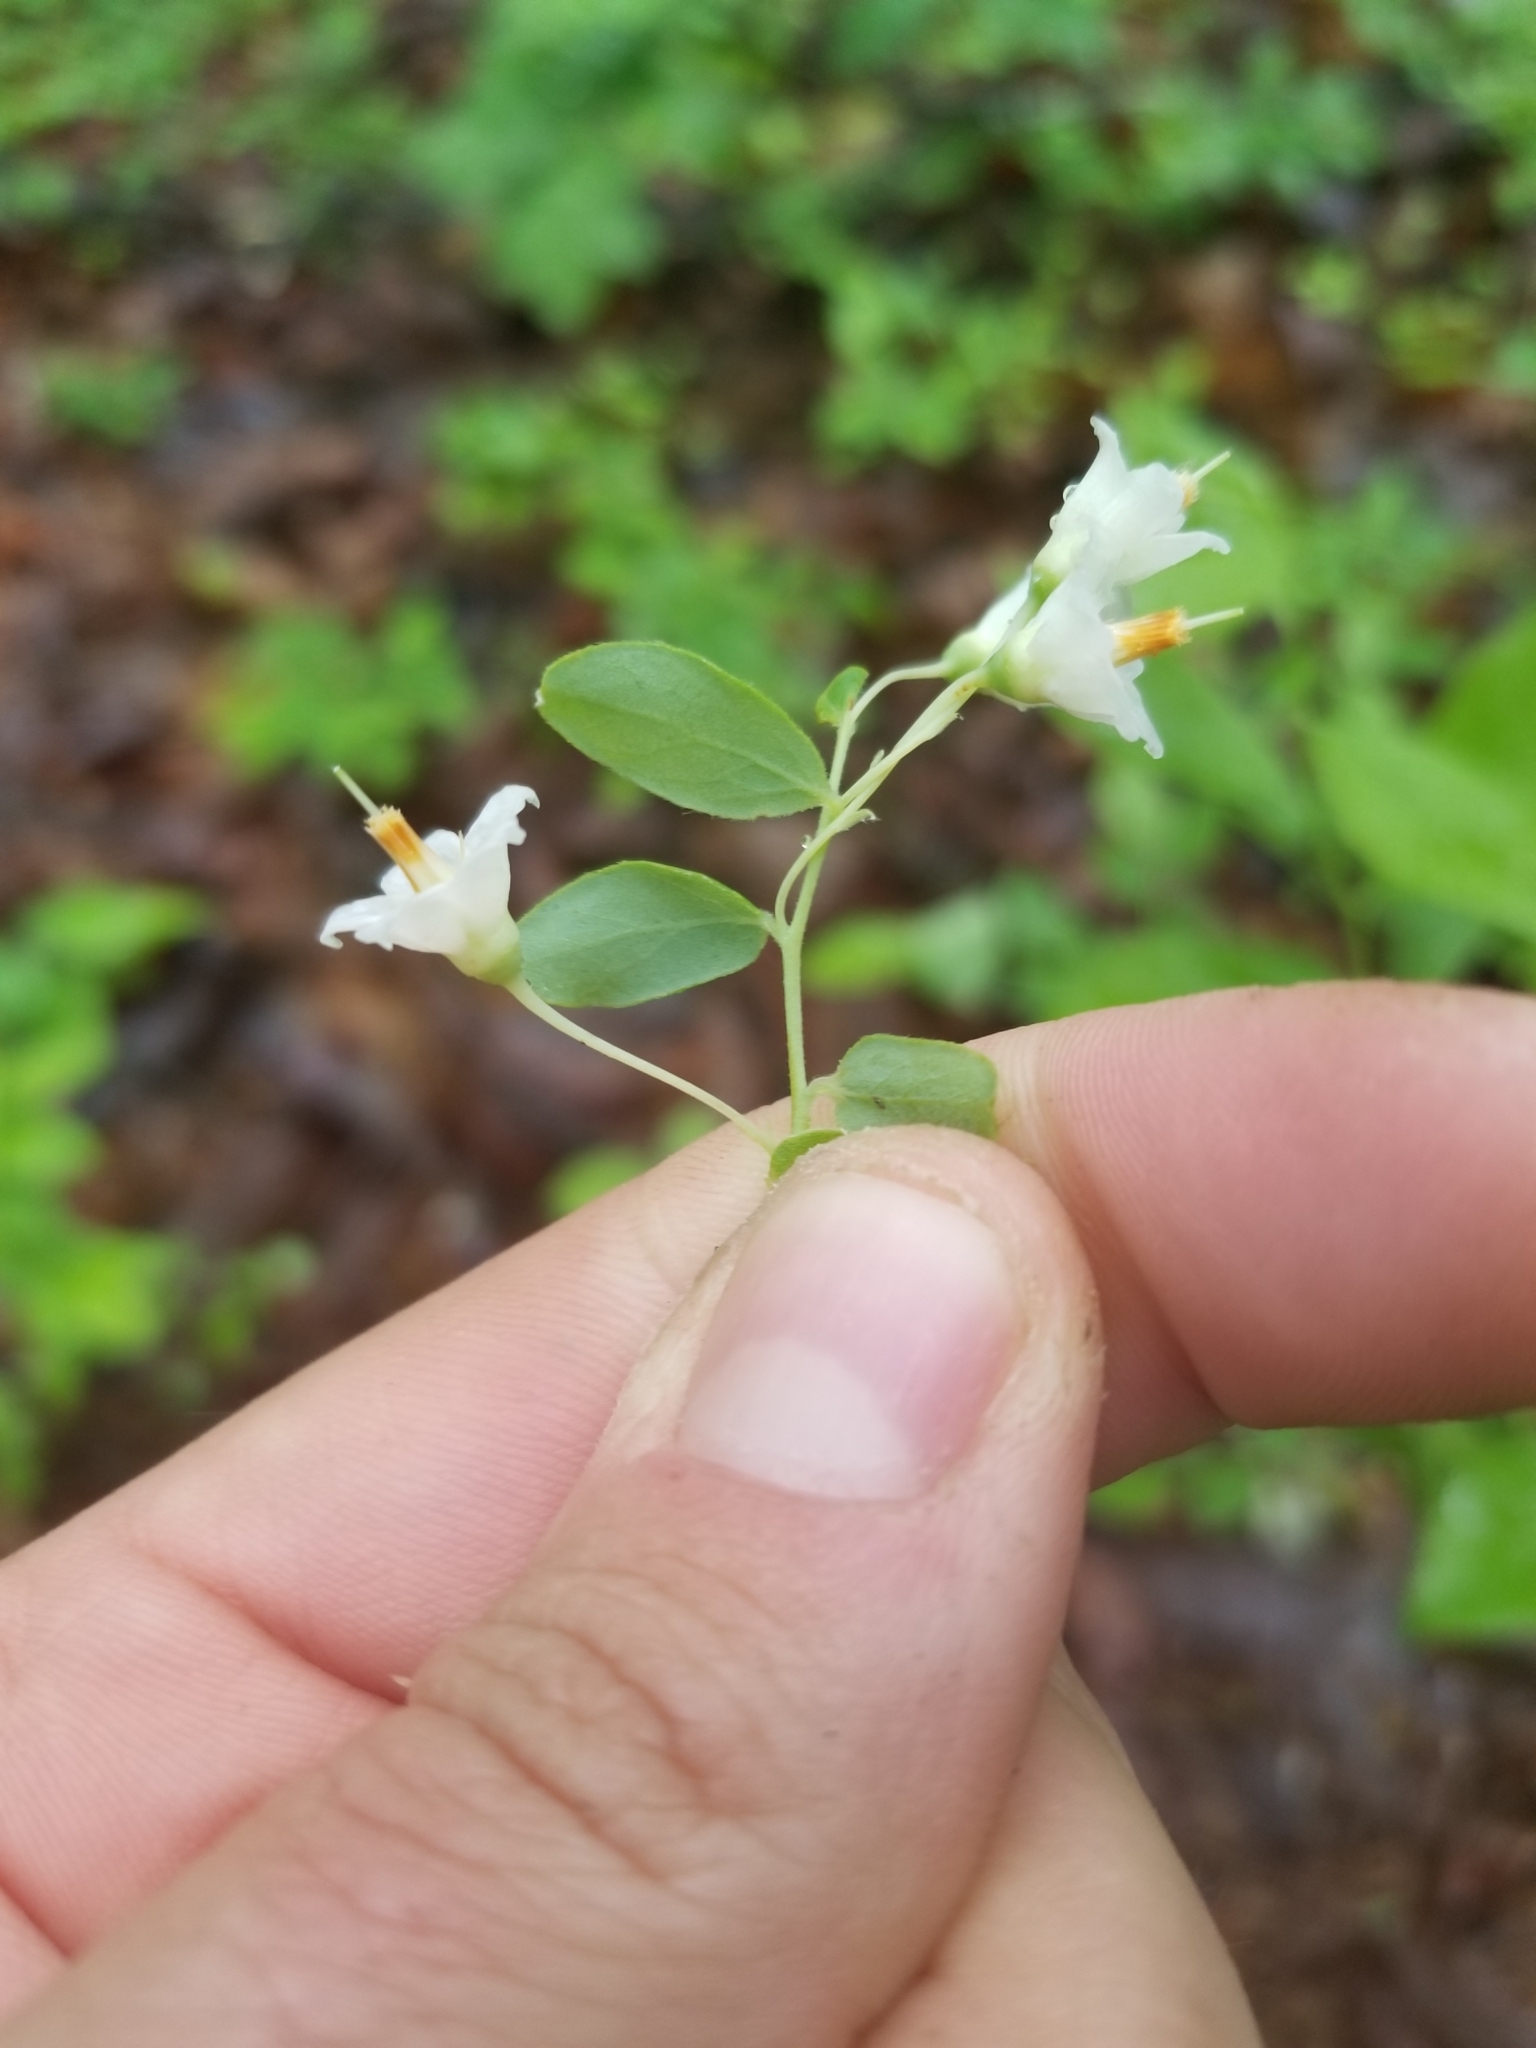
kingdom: Plantae
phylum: Tracheophyta
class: Magnoliopsida
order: Ericales
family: Ericaceae
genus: Vaccinium
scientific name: Vaccinium stamineum
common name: Deerberry
